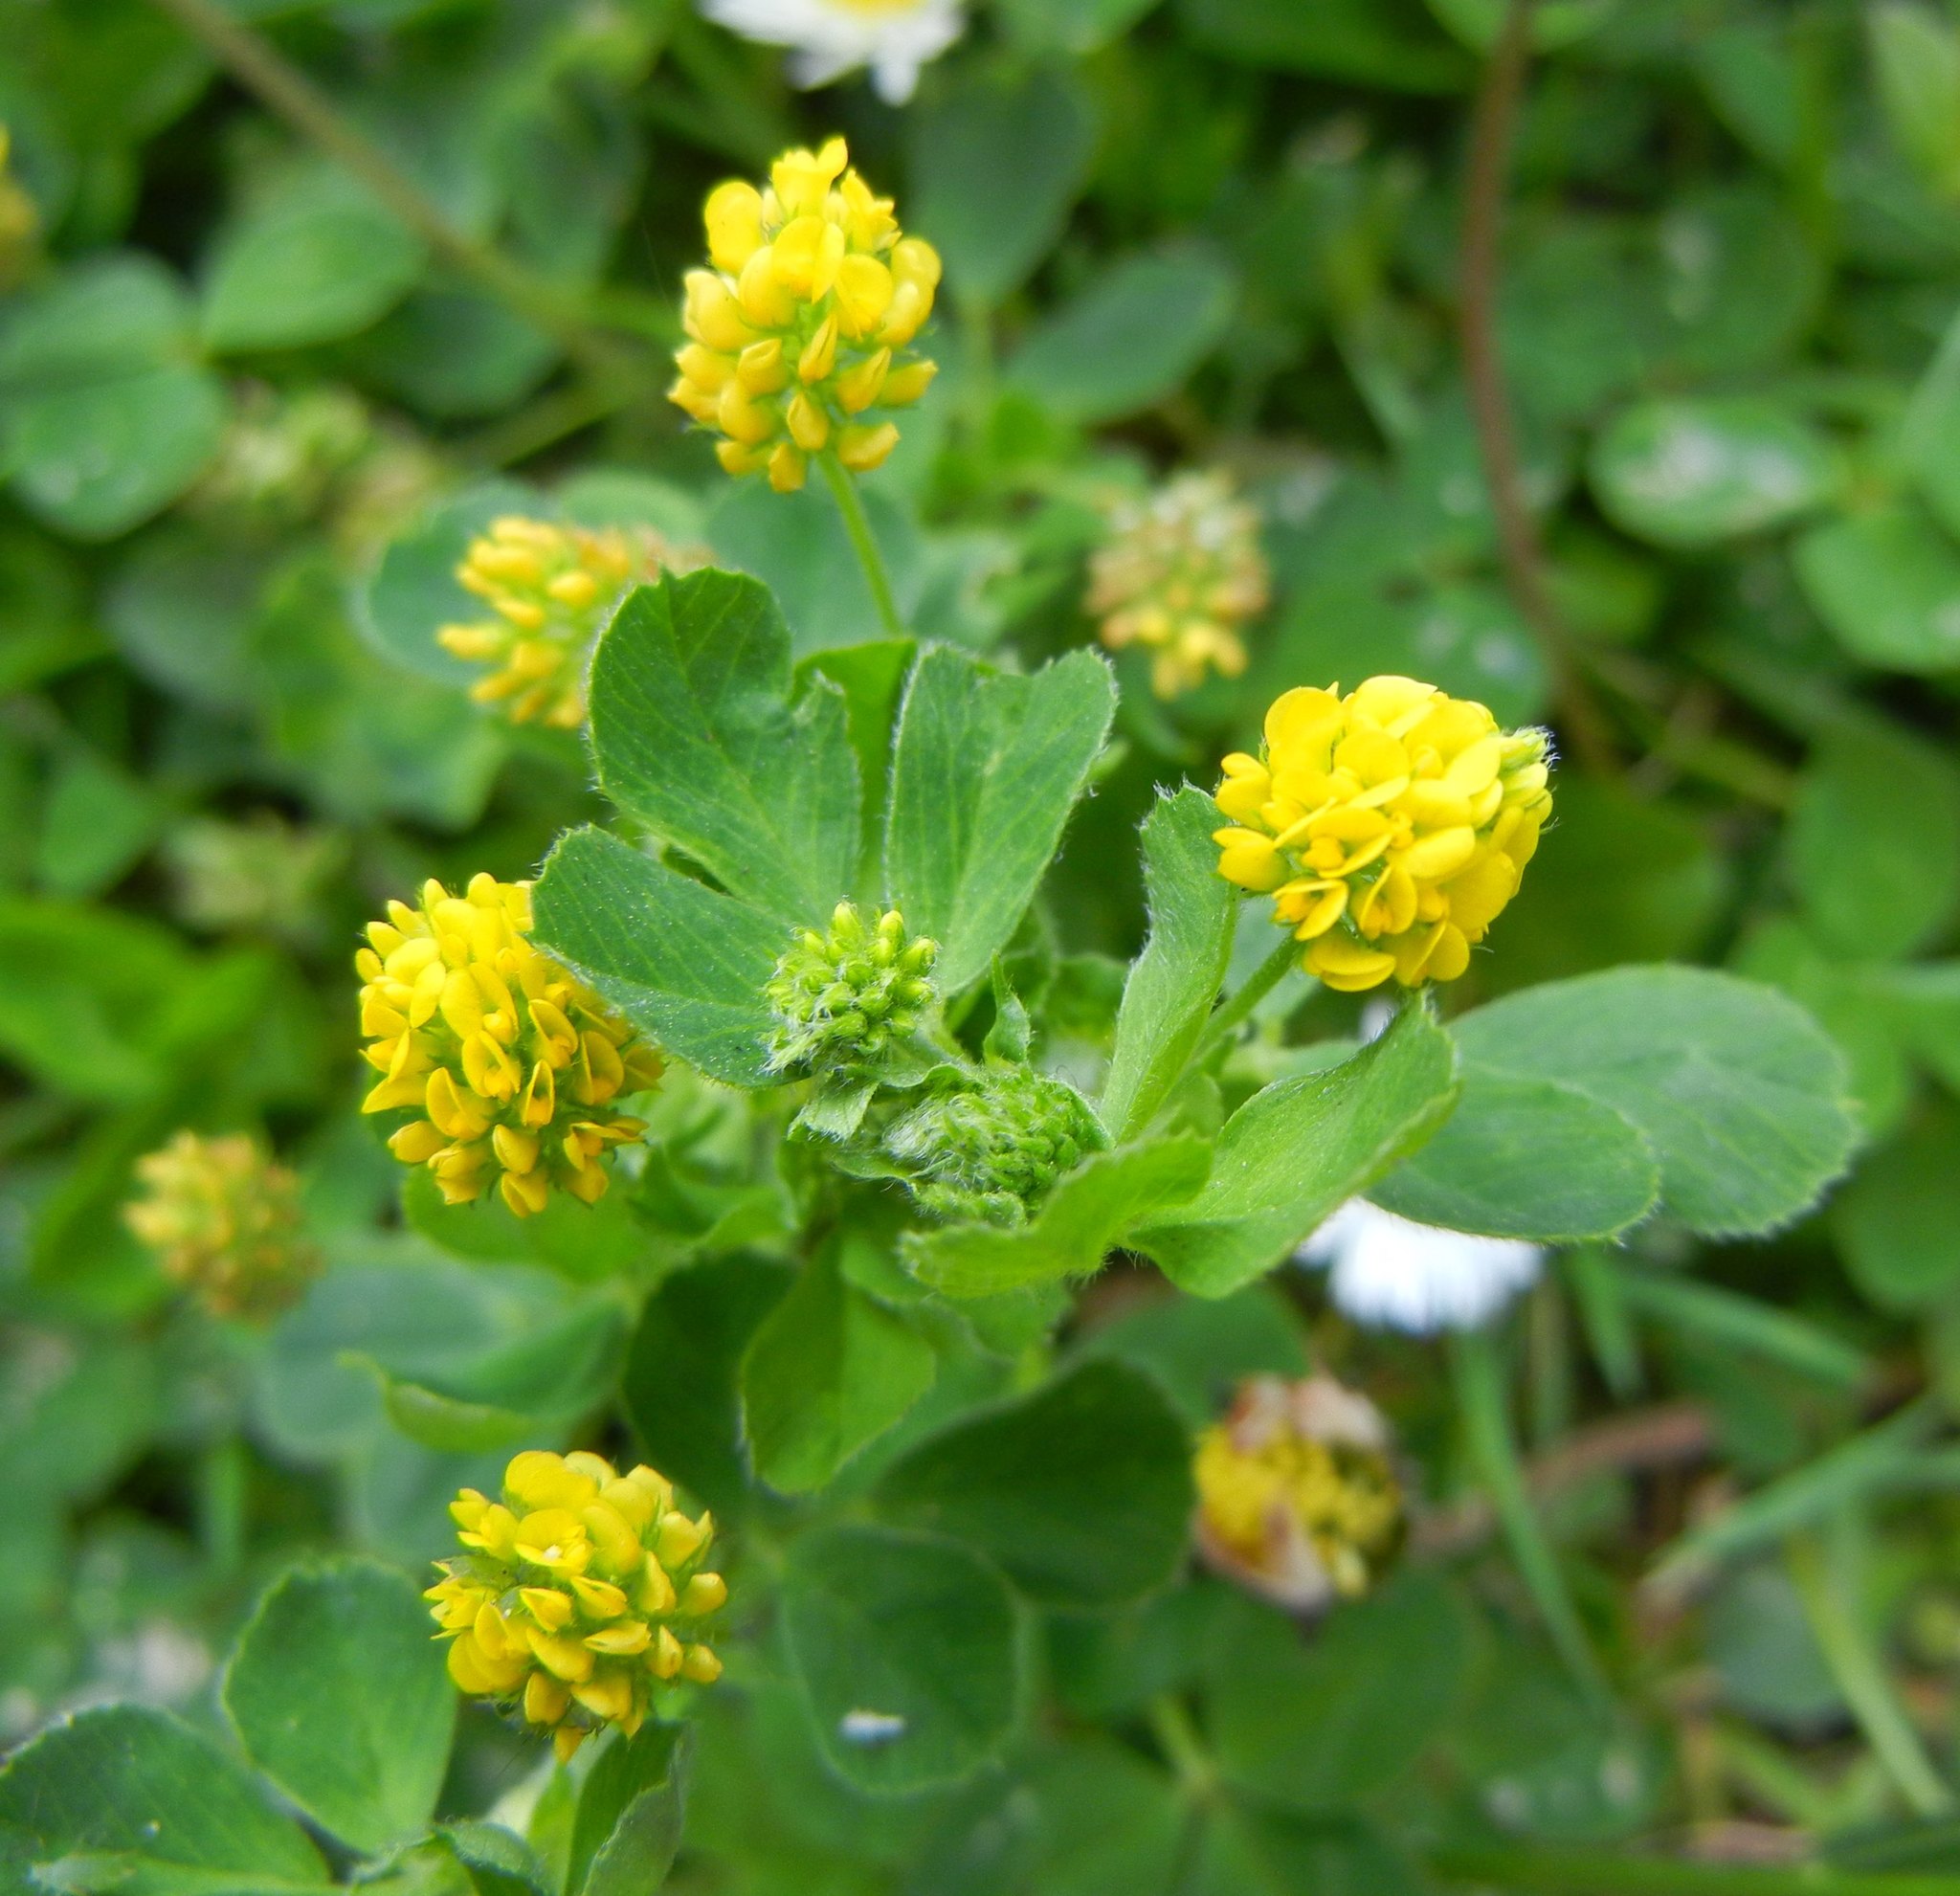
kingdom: Plantae
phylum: Tracheophyta
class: Magnoliopsida
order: Fabales
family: Fabaceae
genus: Medicago
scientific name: Medicago lupulina
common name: Black medick
